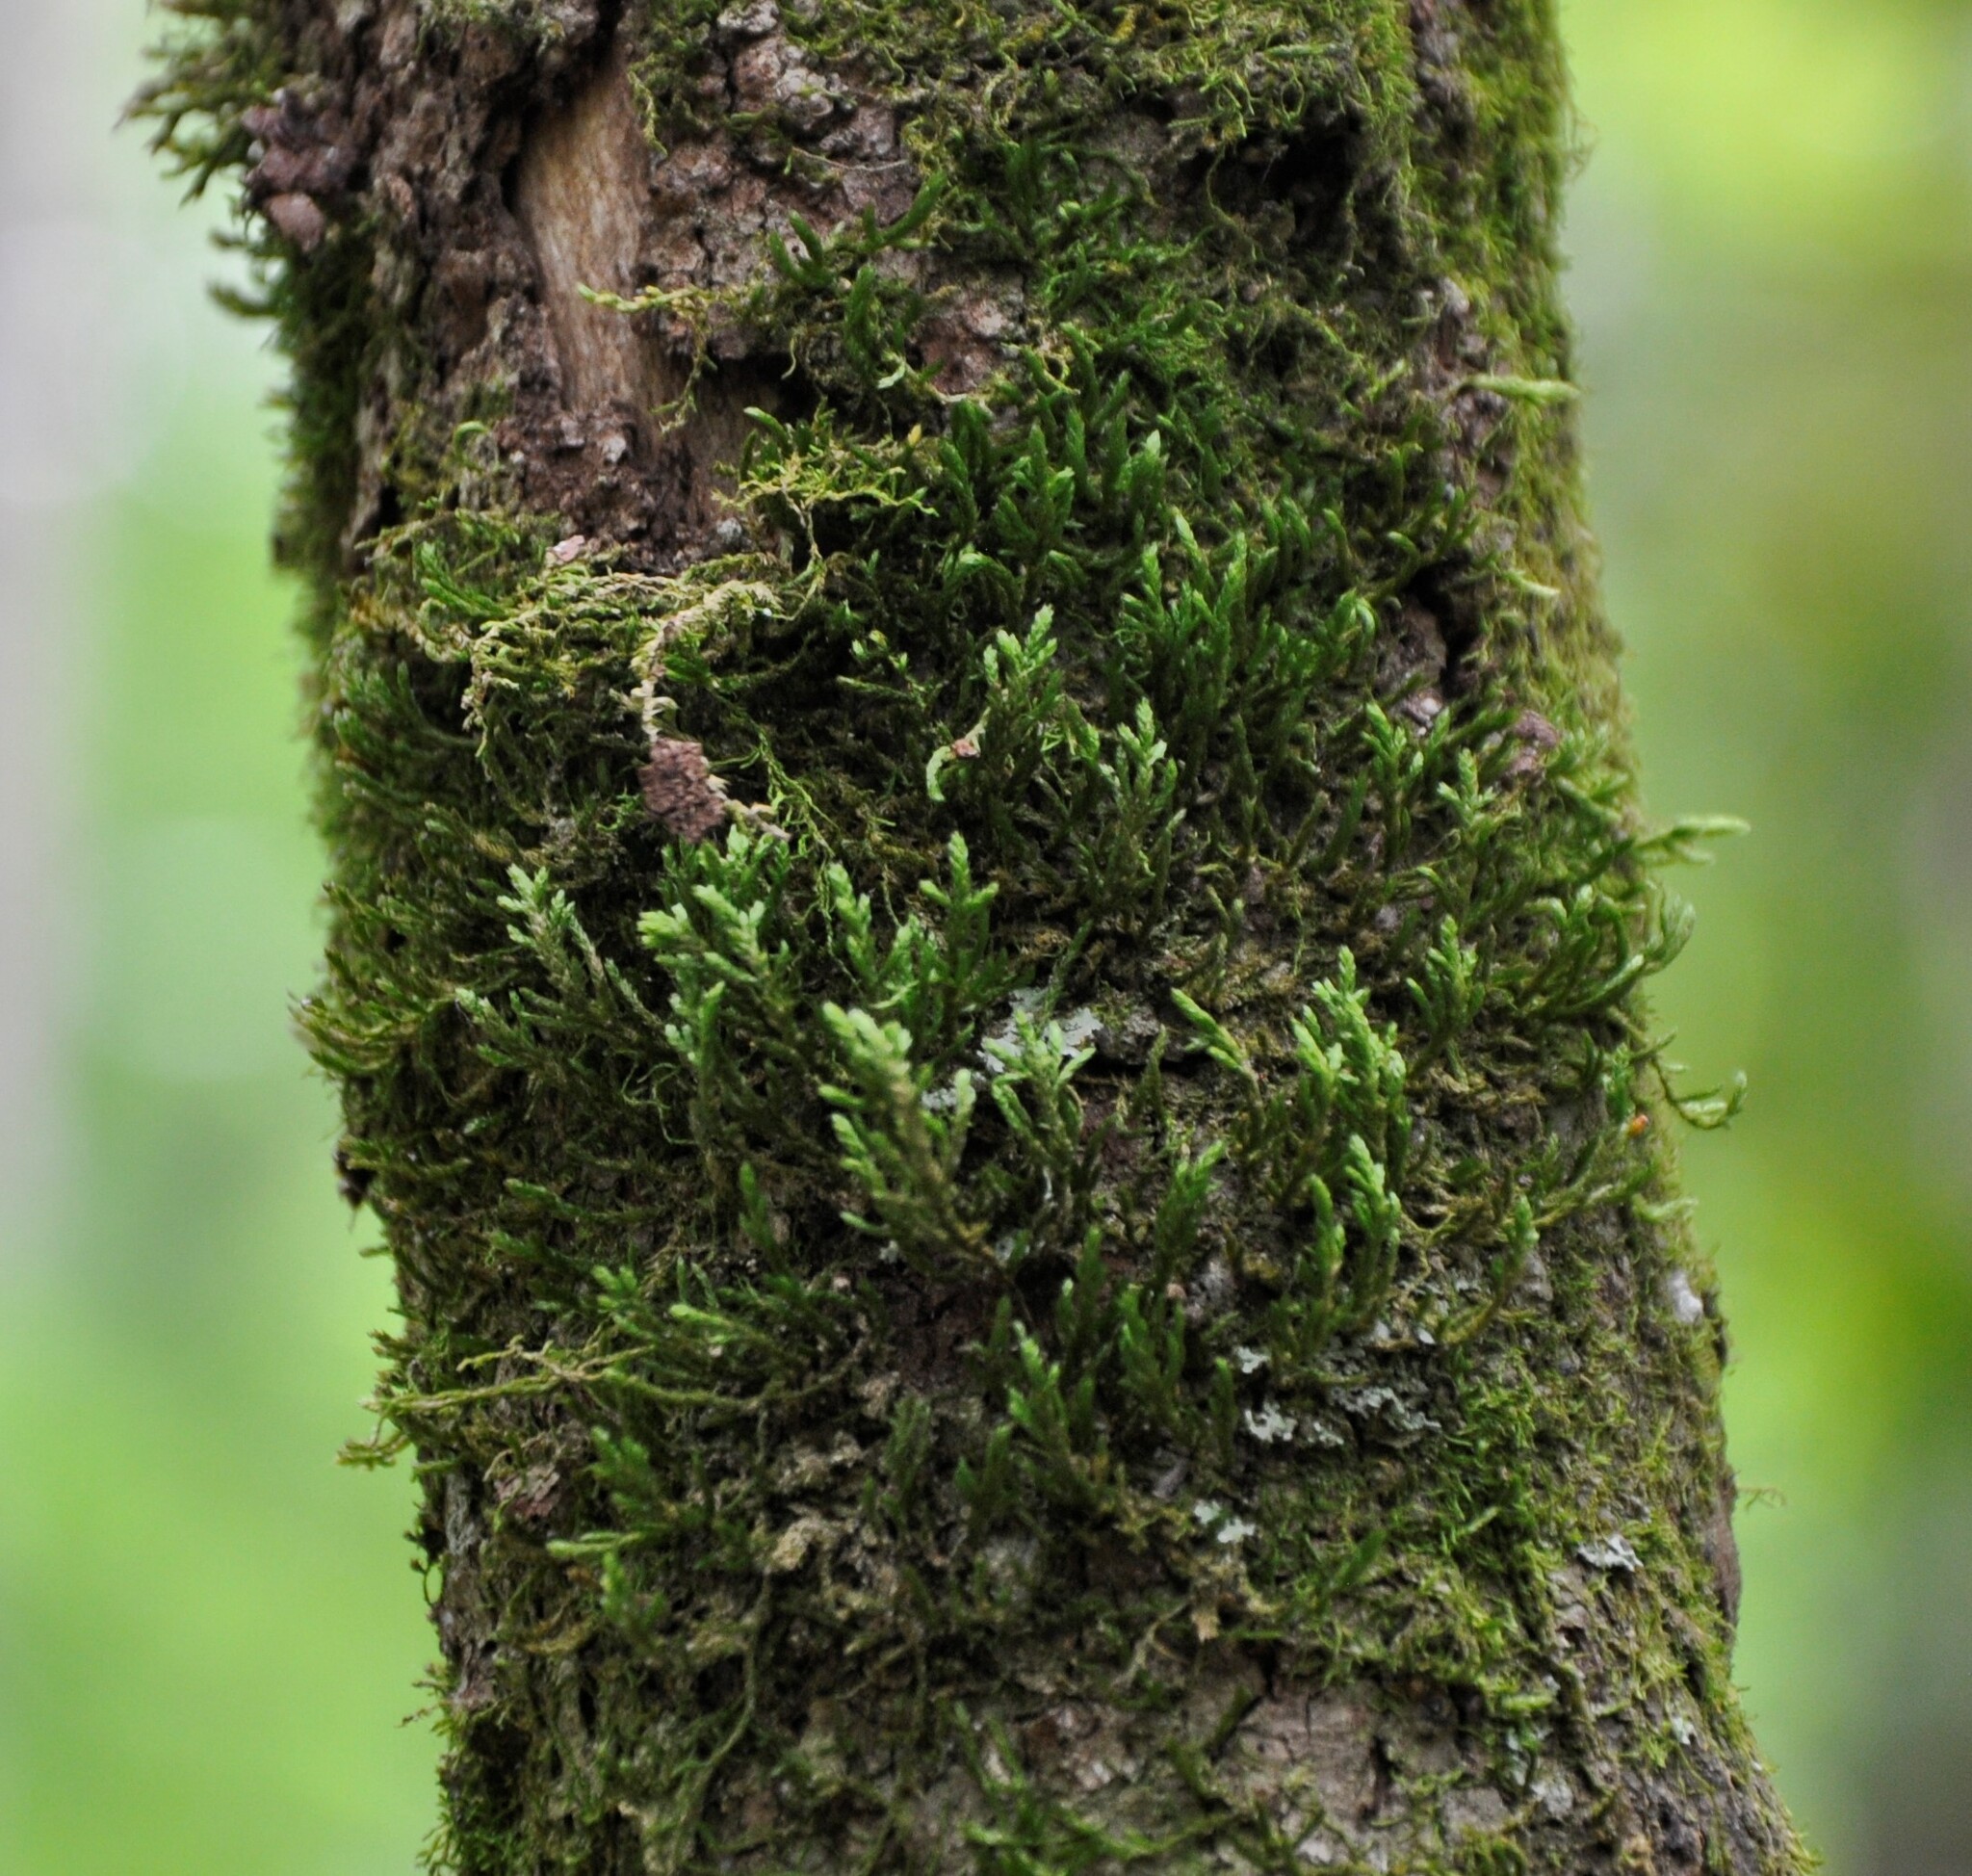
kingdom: Plantae
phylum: Bryophyta
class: Bryopsida
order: Hypnales
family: Neckeraceae
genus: Forsstroemia
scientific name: Forsstroemia trichomitria
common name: Fan moss
